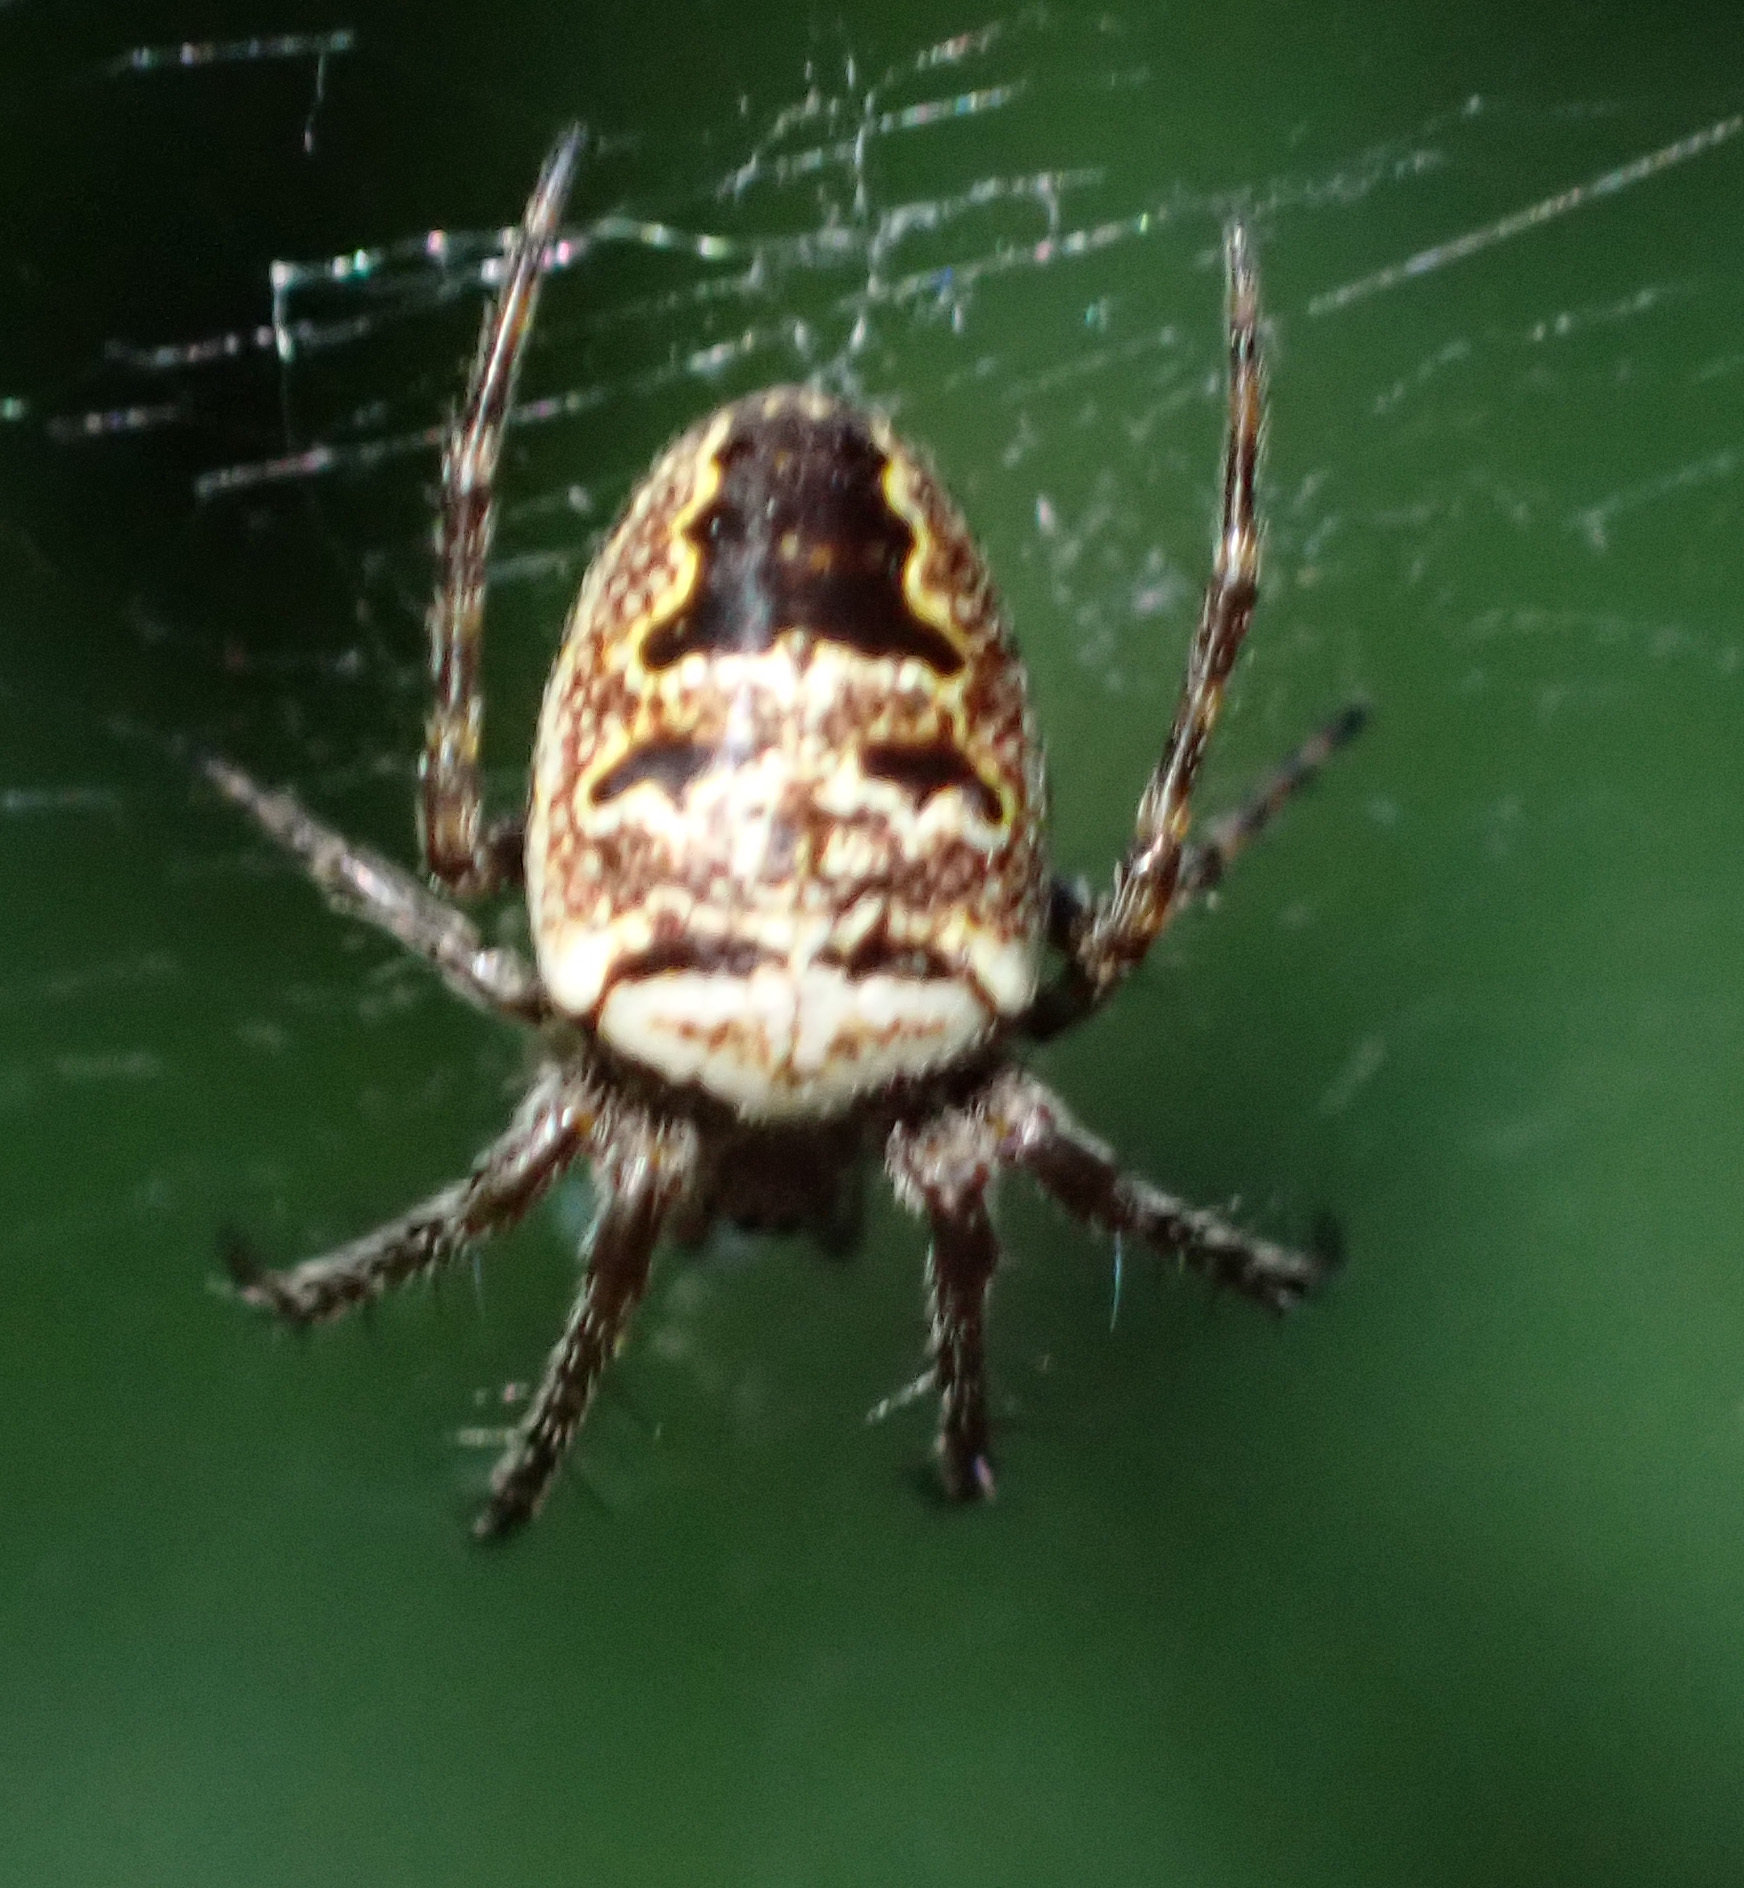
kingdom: Animalia
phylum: Arthropoda
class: Arachnida
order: Araneae
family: Araneidae
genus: Zilla
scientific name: Zilla diodia
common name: Zilla diodia
